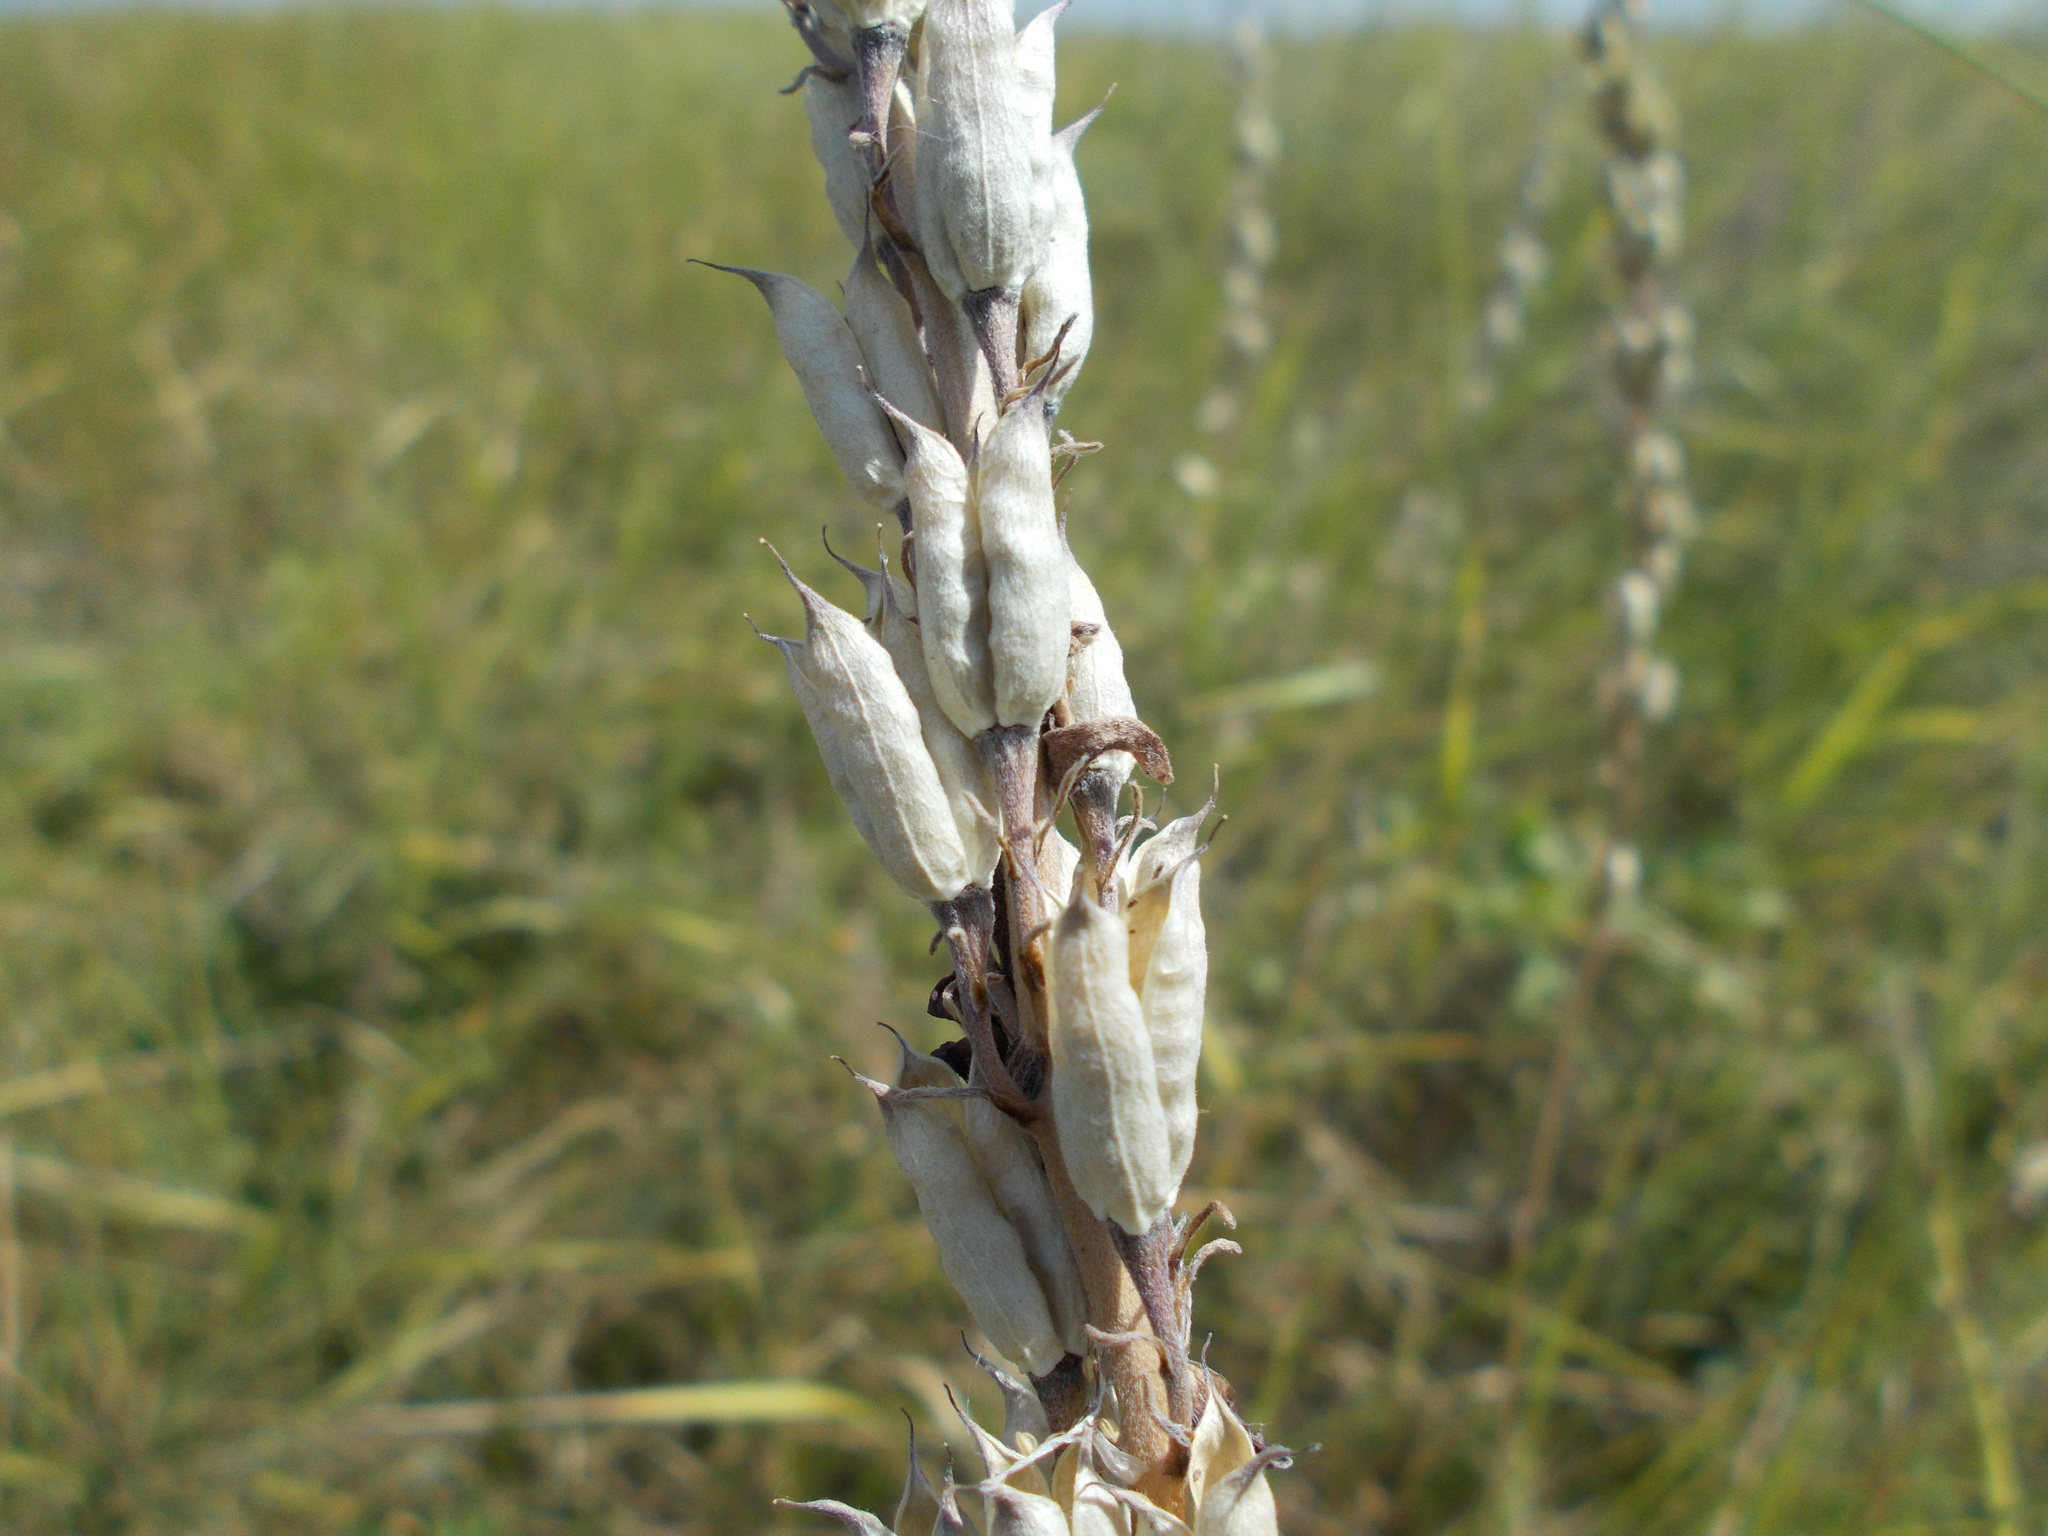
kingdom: Plantae
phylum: Tracheophyta
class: Magnoliopsida
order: Ranunculales
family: Ranunculaceae
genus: Delphinium
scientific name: Delphinium puniceum
